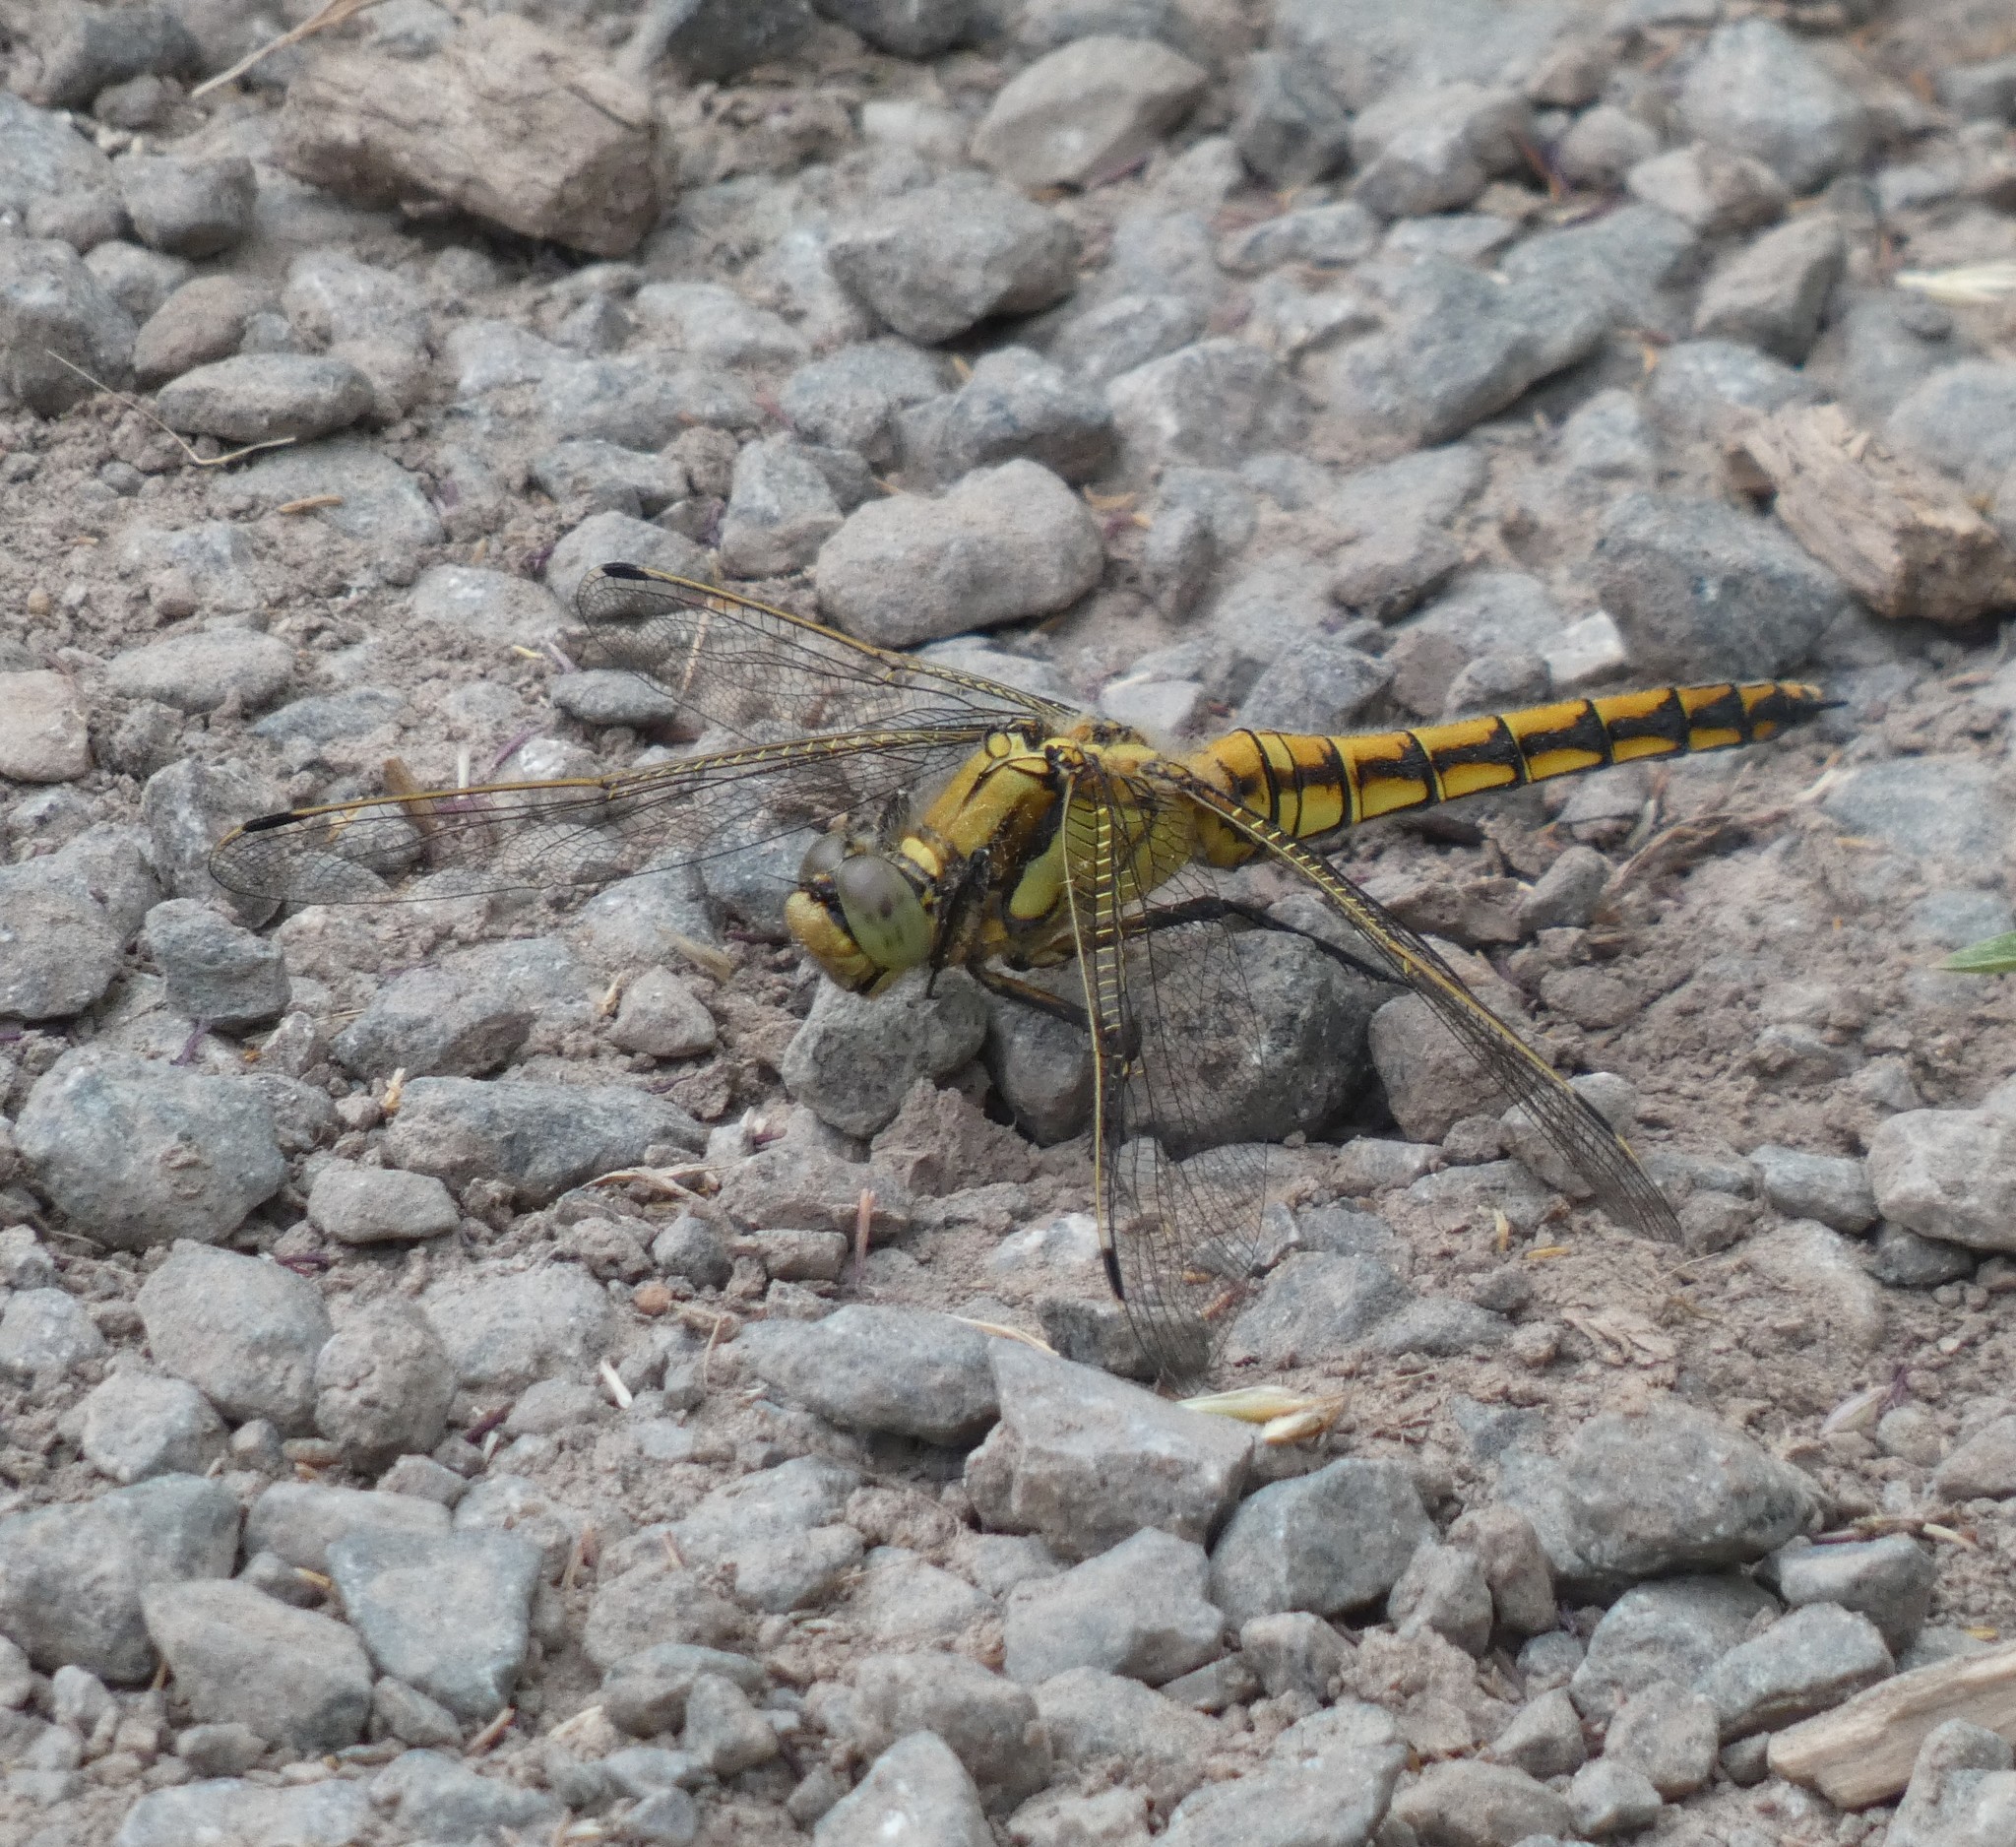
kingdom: Animalia
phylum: Arthropoda
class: Insecta
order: Odonata
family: Libellulidae
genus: Orthetrum
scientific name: Orthetrum cancellatum
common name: Black-tailed skimmer
